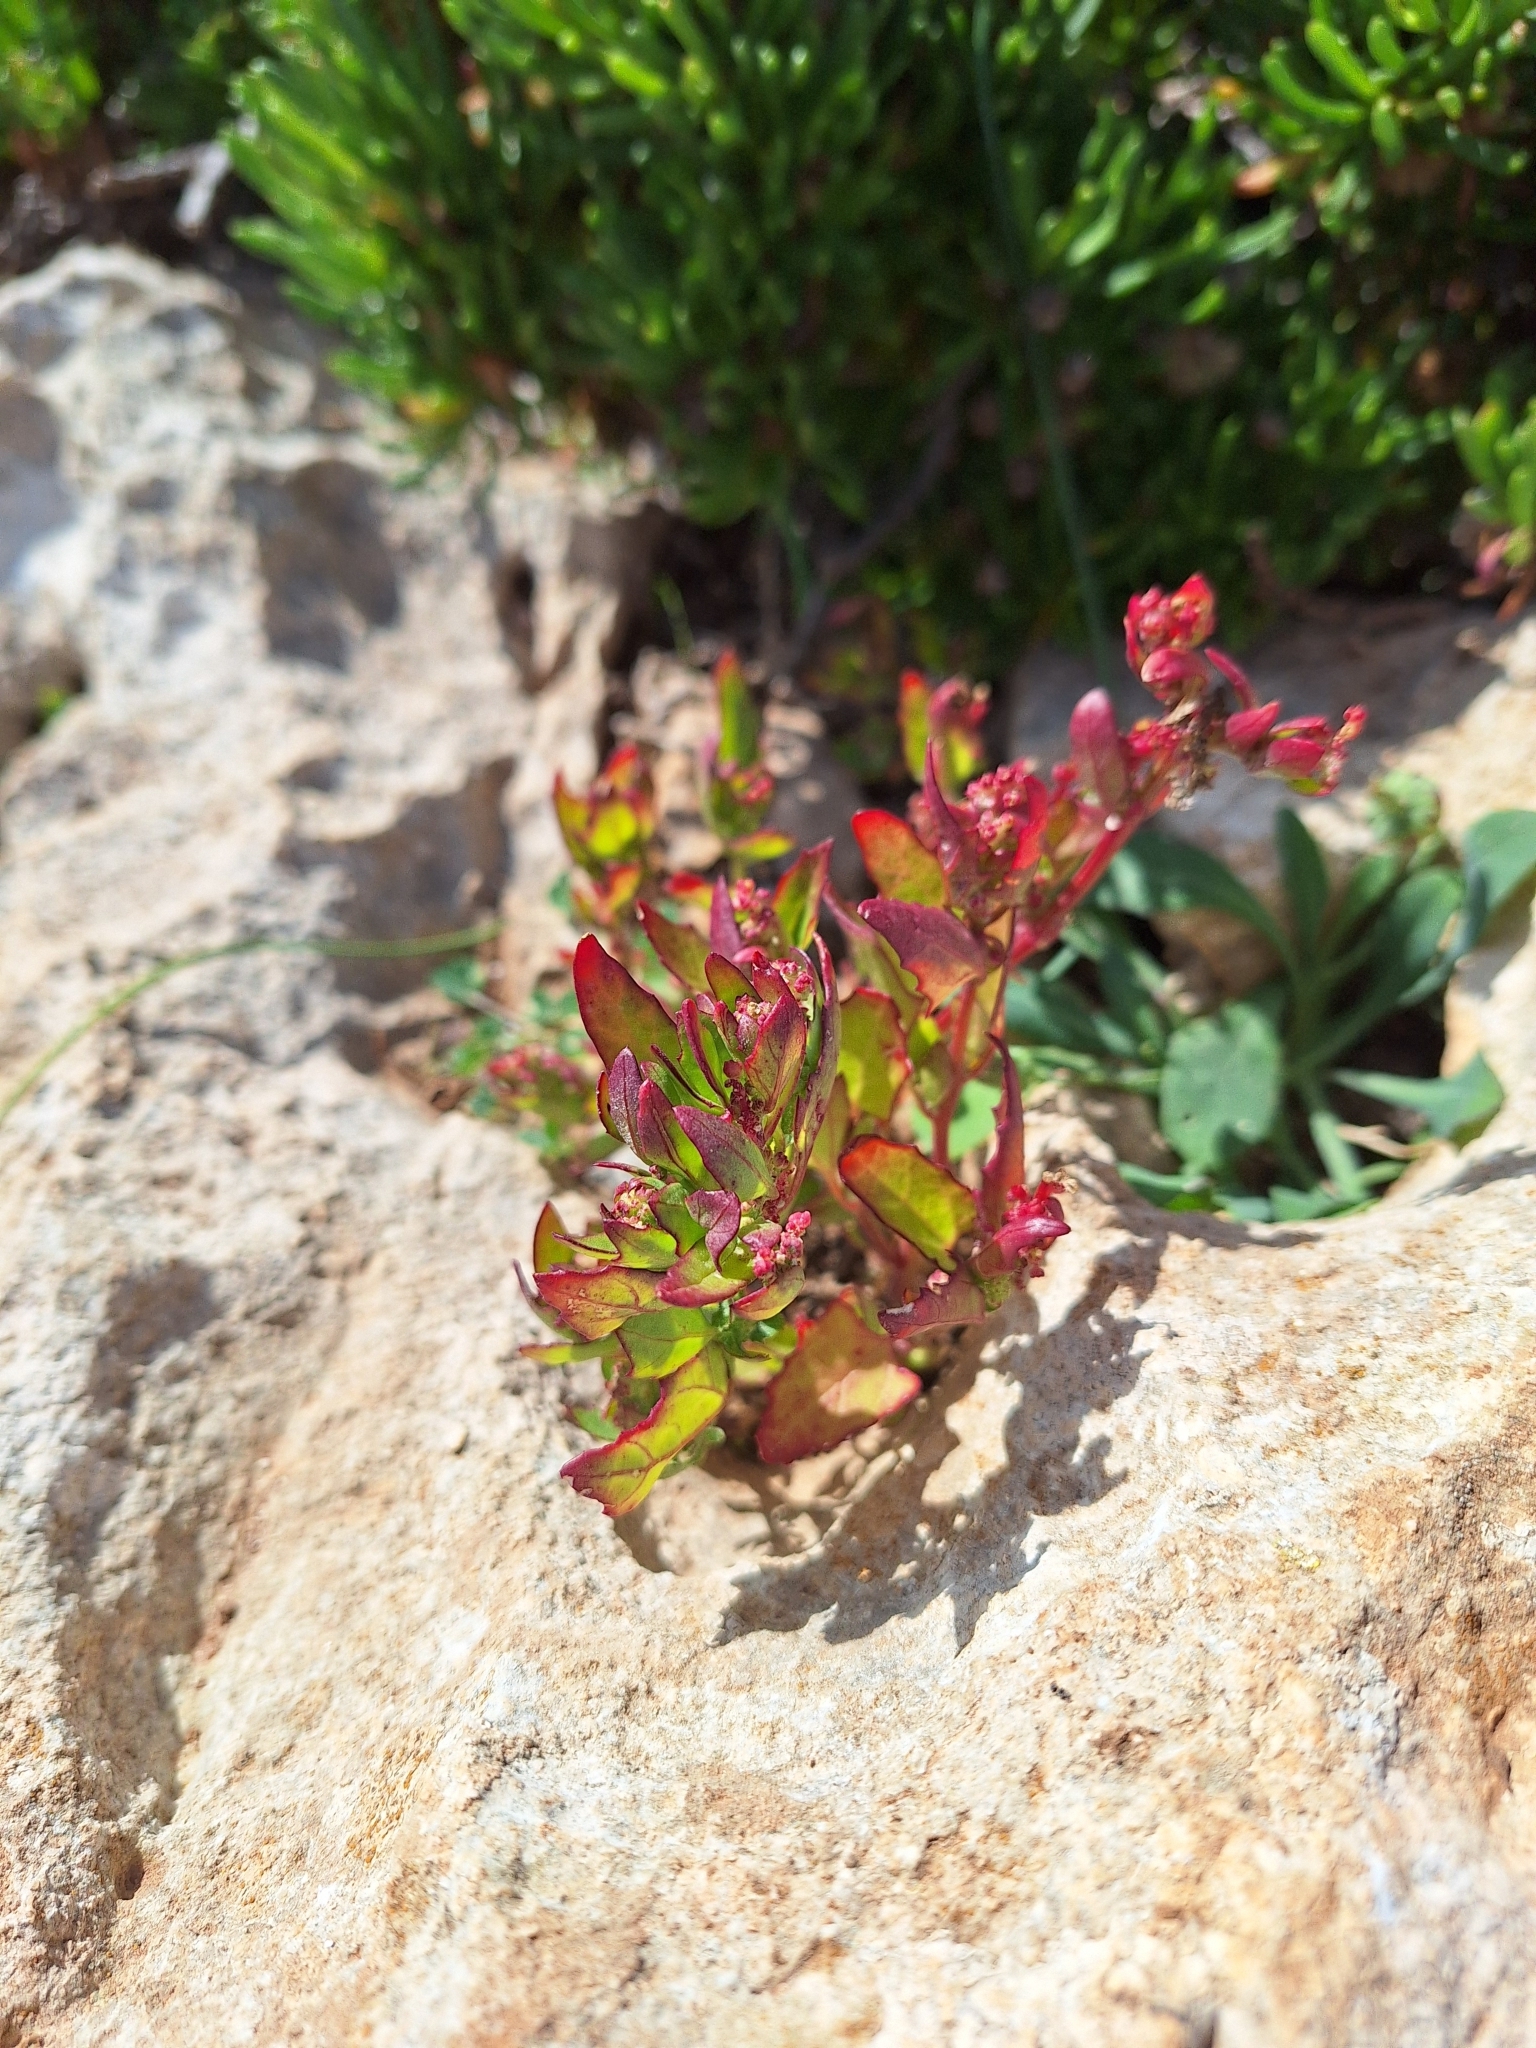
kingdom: Plantae
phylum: Tracheophyta
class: Magnoliopsida
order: Caryophyllales
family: Amaranthaceae
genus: Chenopodiastrum
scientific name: Chenopodiastrum murale
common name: Sowbane
